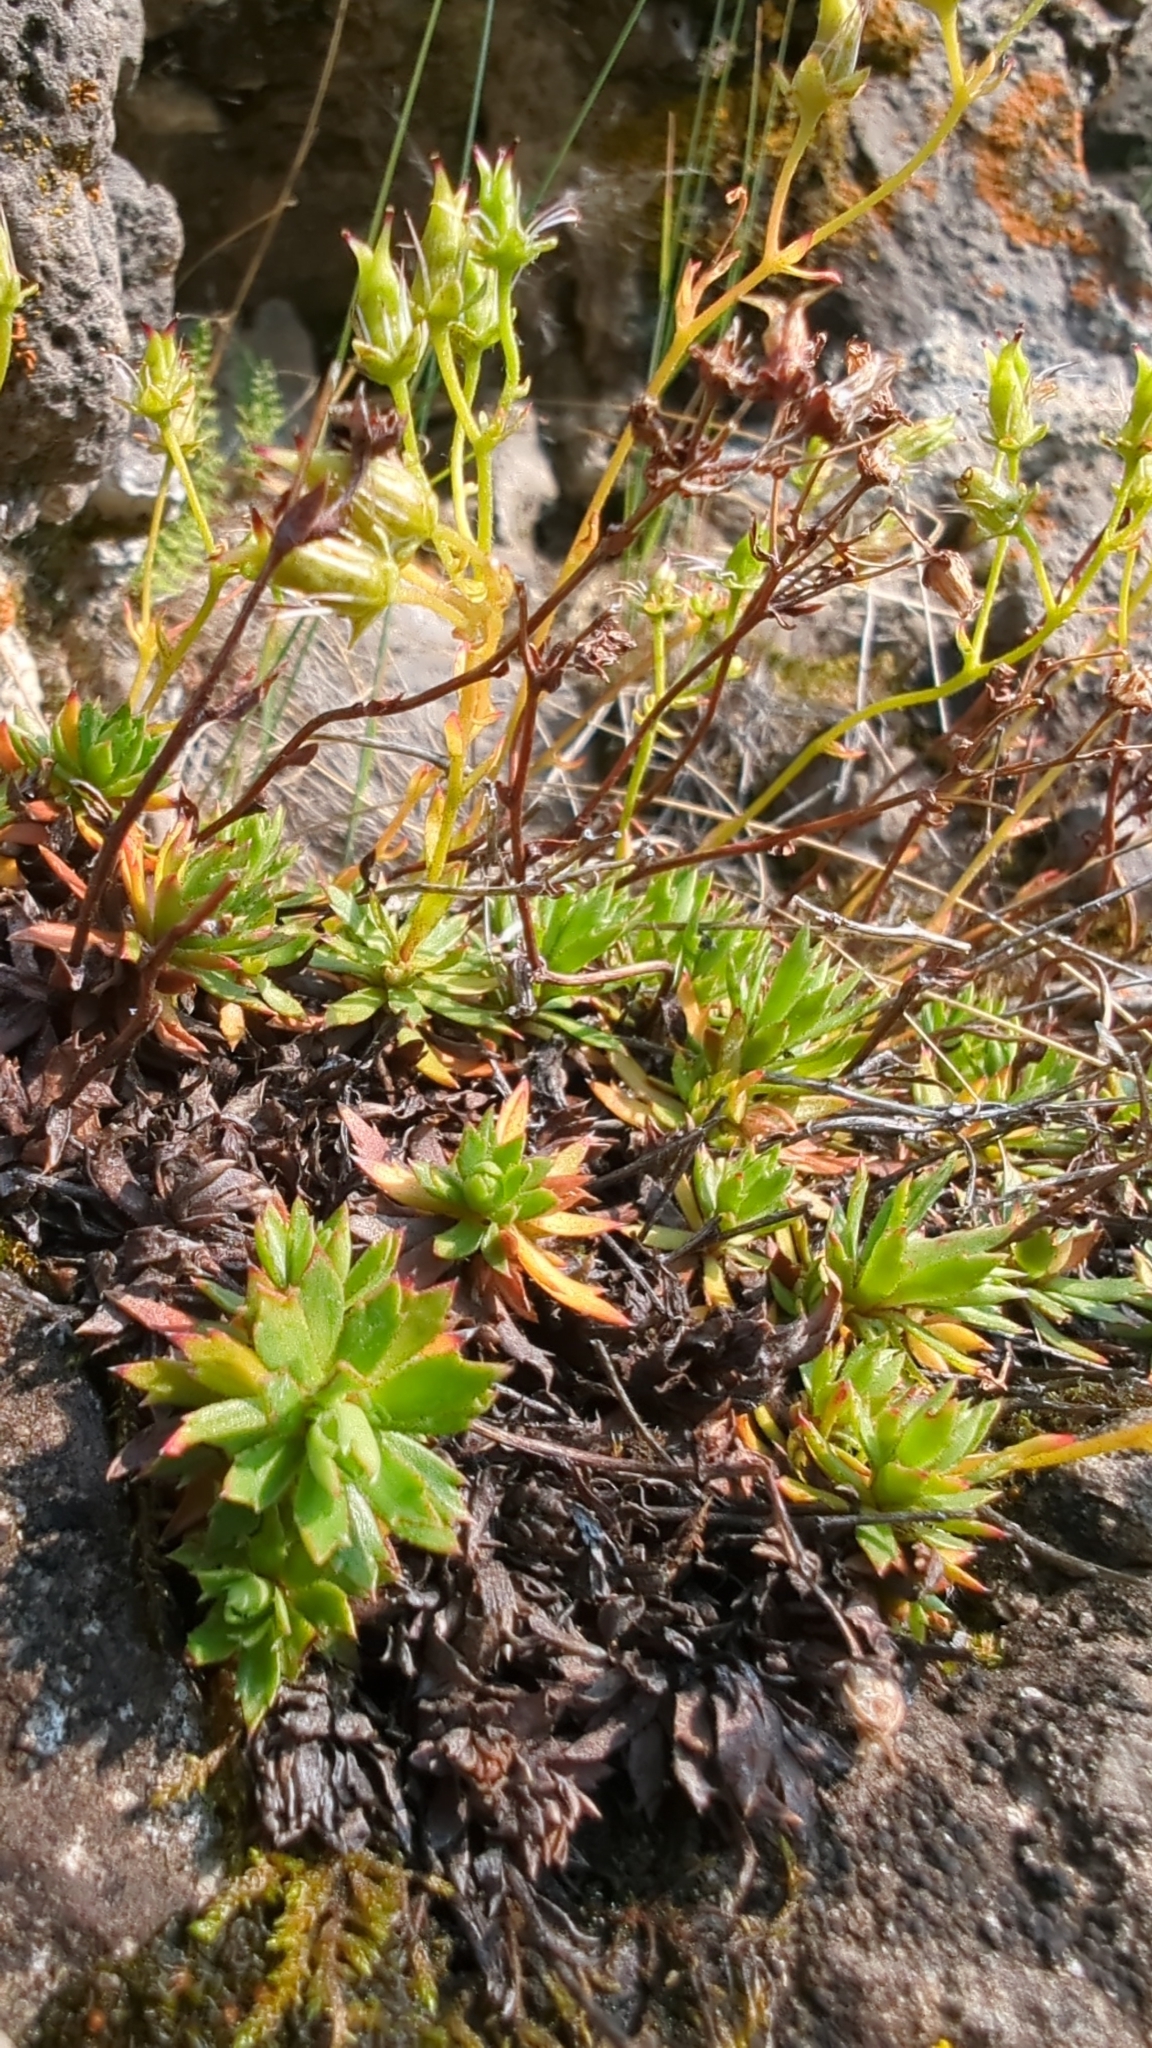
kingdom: Plantae
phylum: Tracheophyta
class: Magnoliopsida
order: Saxifragales
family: Saxifragaceae
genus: Saxifraga
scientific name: Saxifraga tricuspidata
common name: Prickly saxifrage
